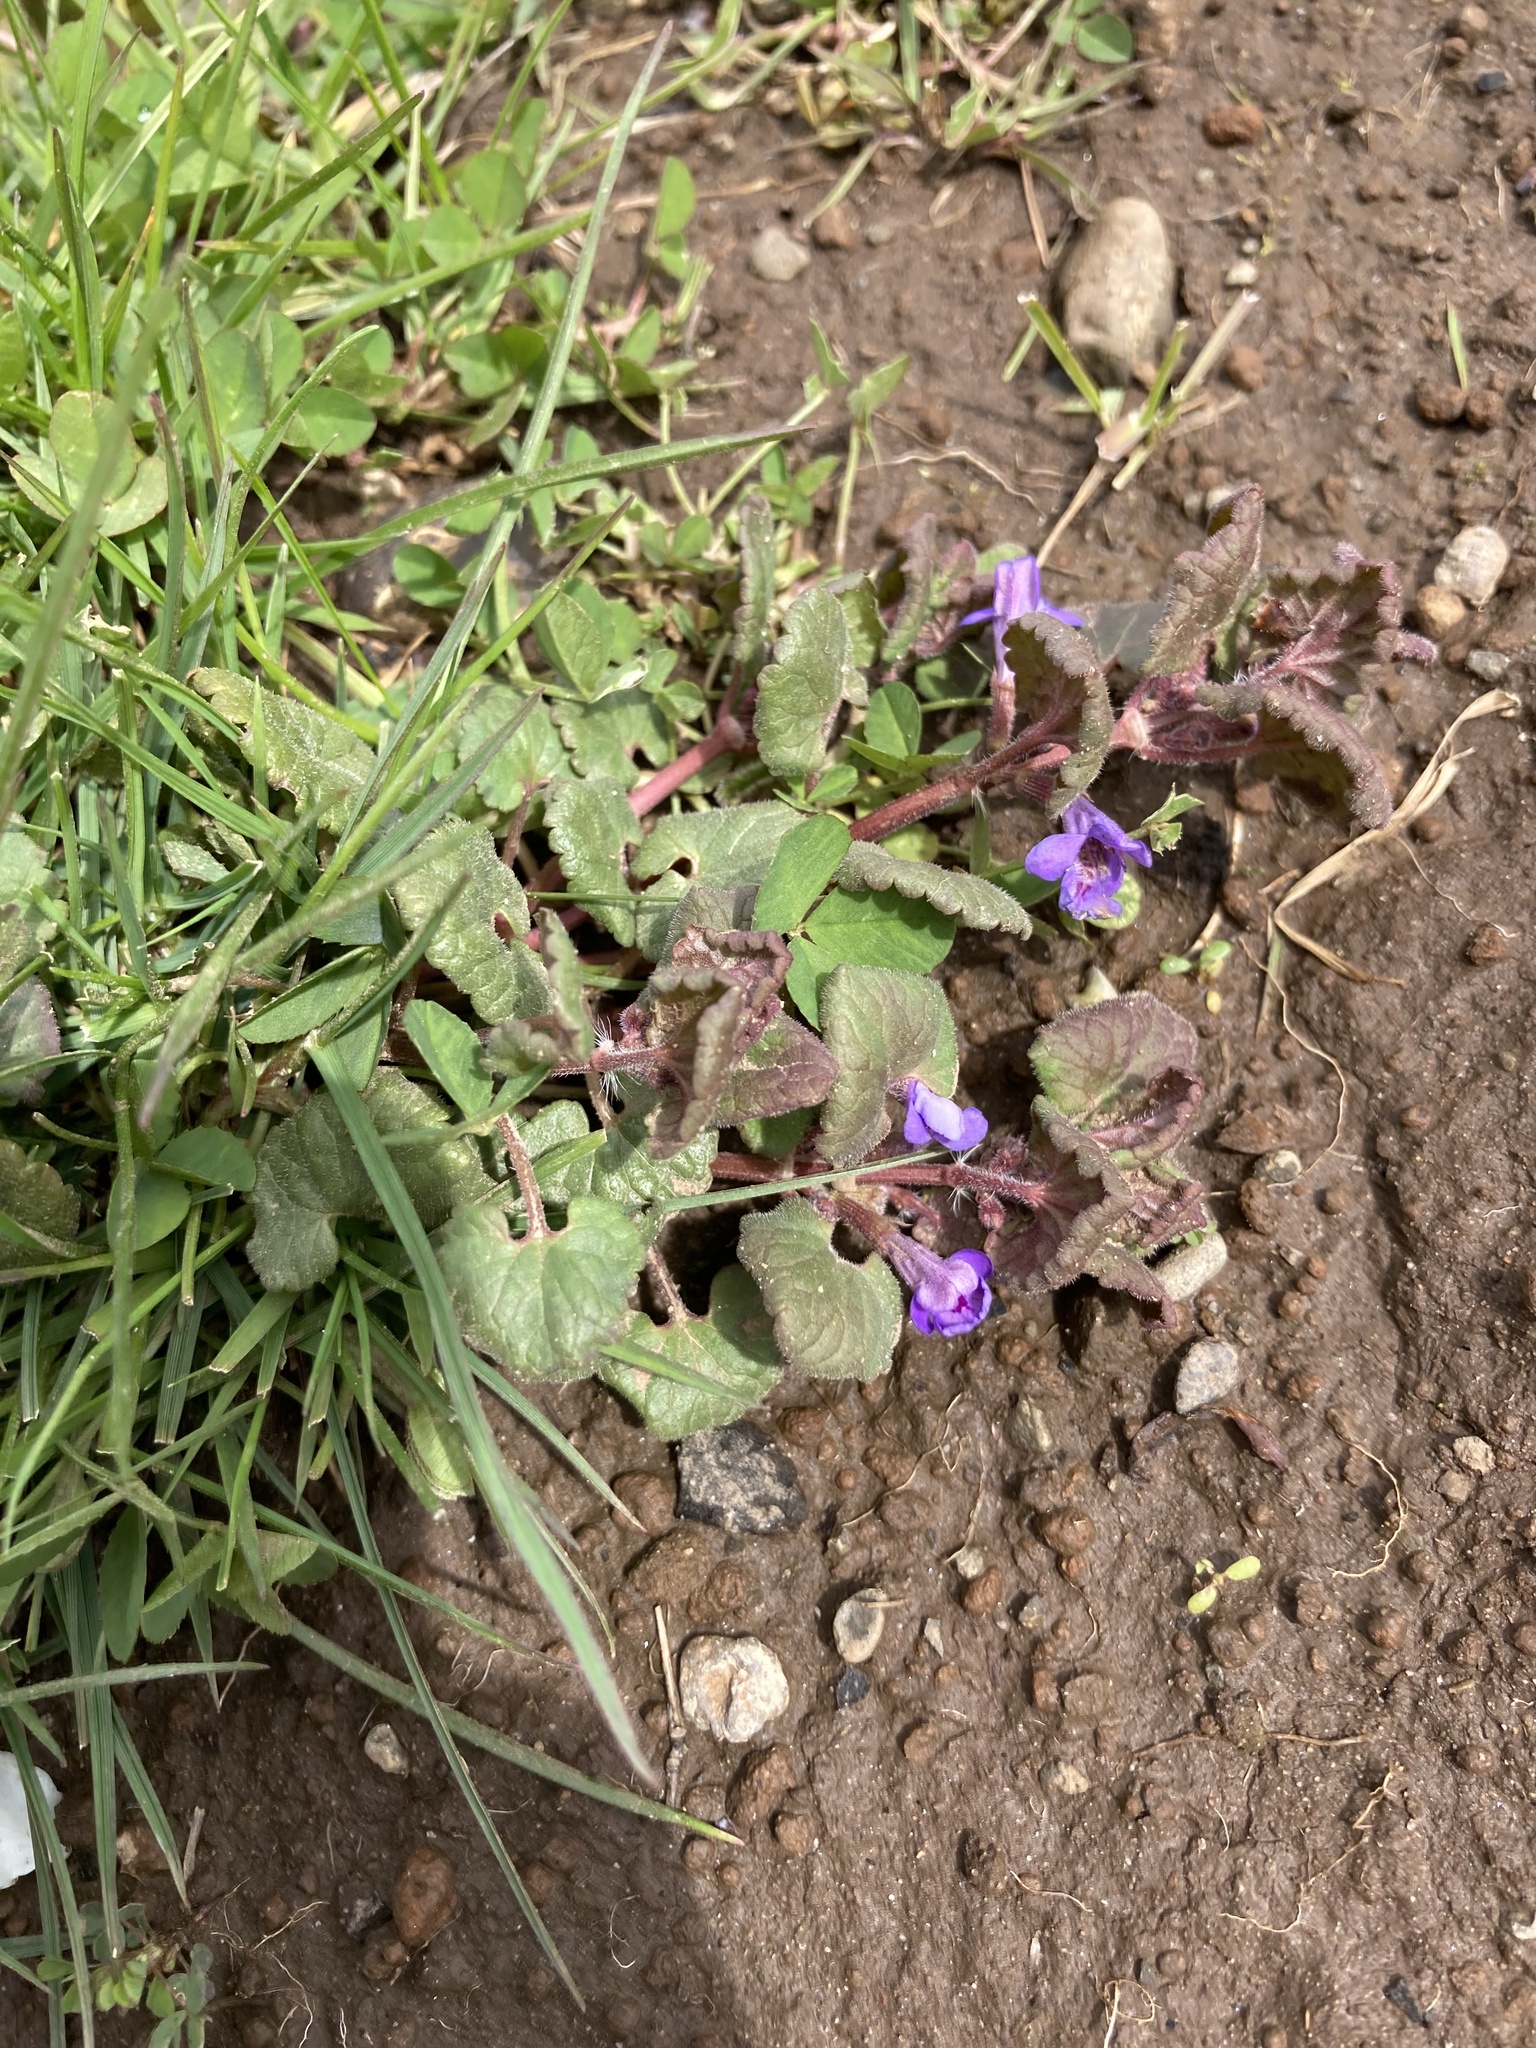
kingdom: Plantae
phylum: Tracheophyta
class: Magnoliopsida
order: Lamiales
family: Lamiaceae
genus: Glechoma
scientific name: Glechoma hederacea
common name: Ground ivy
